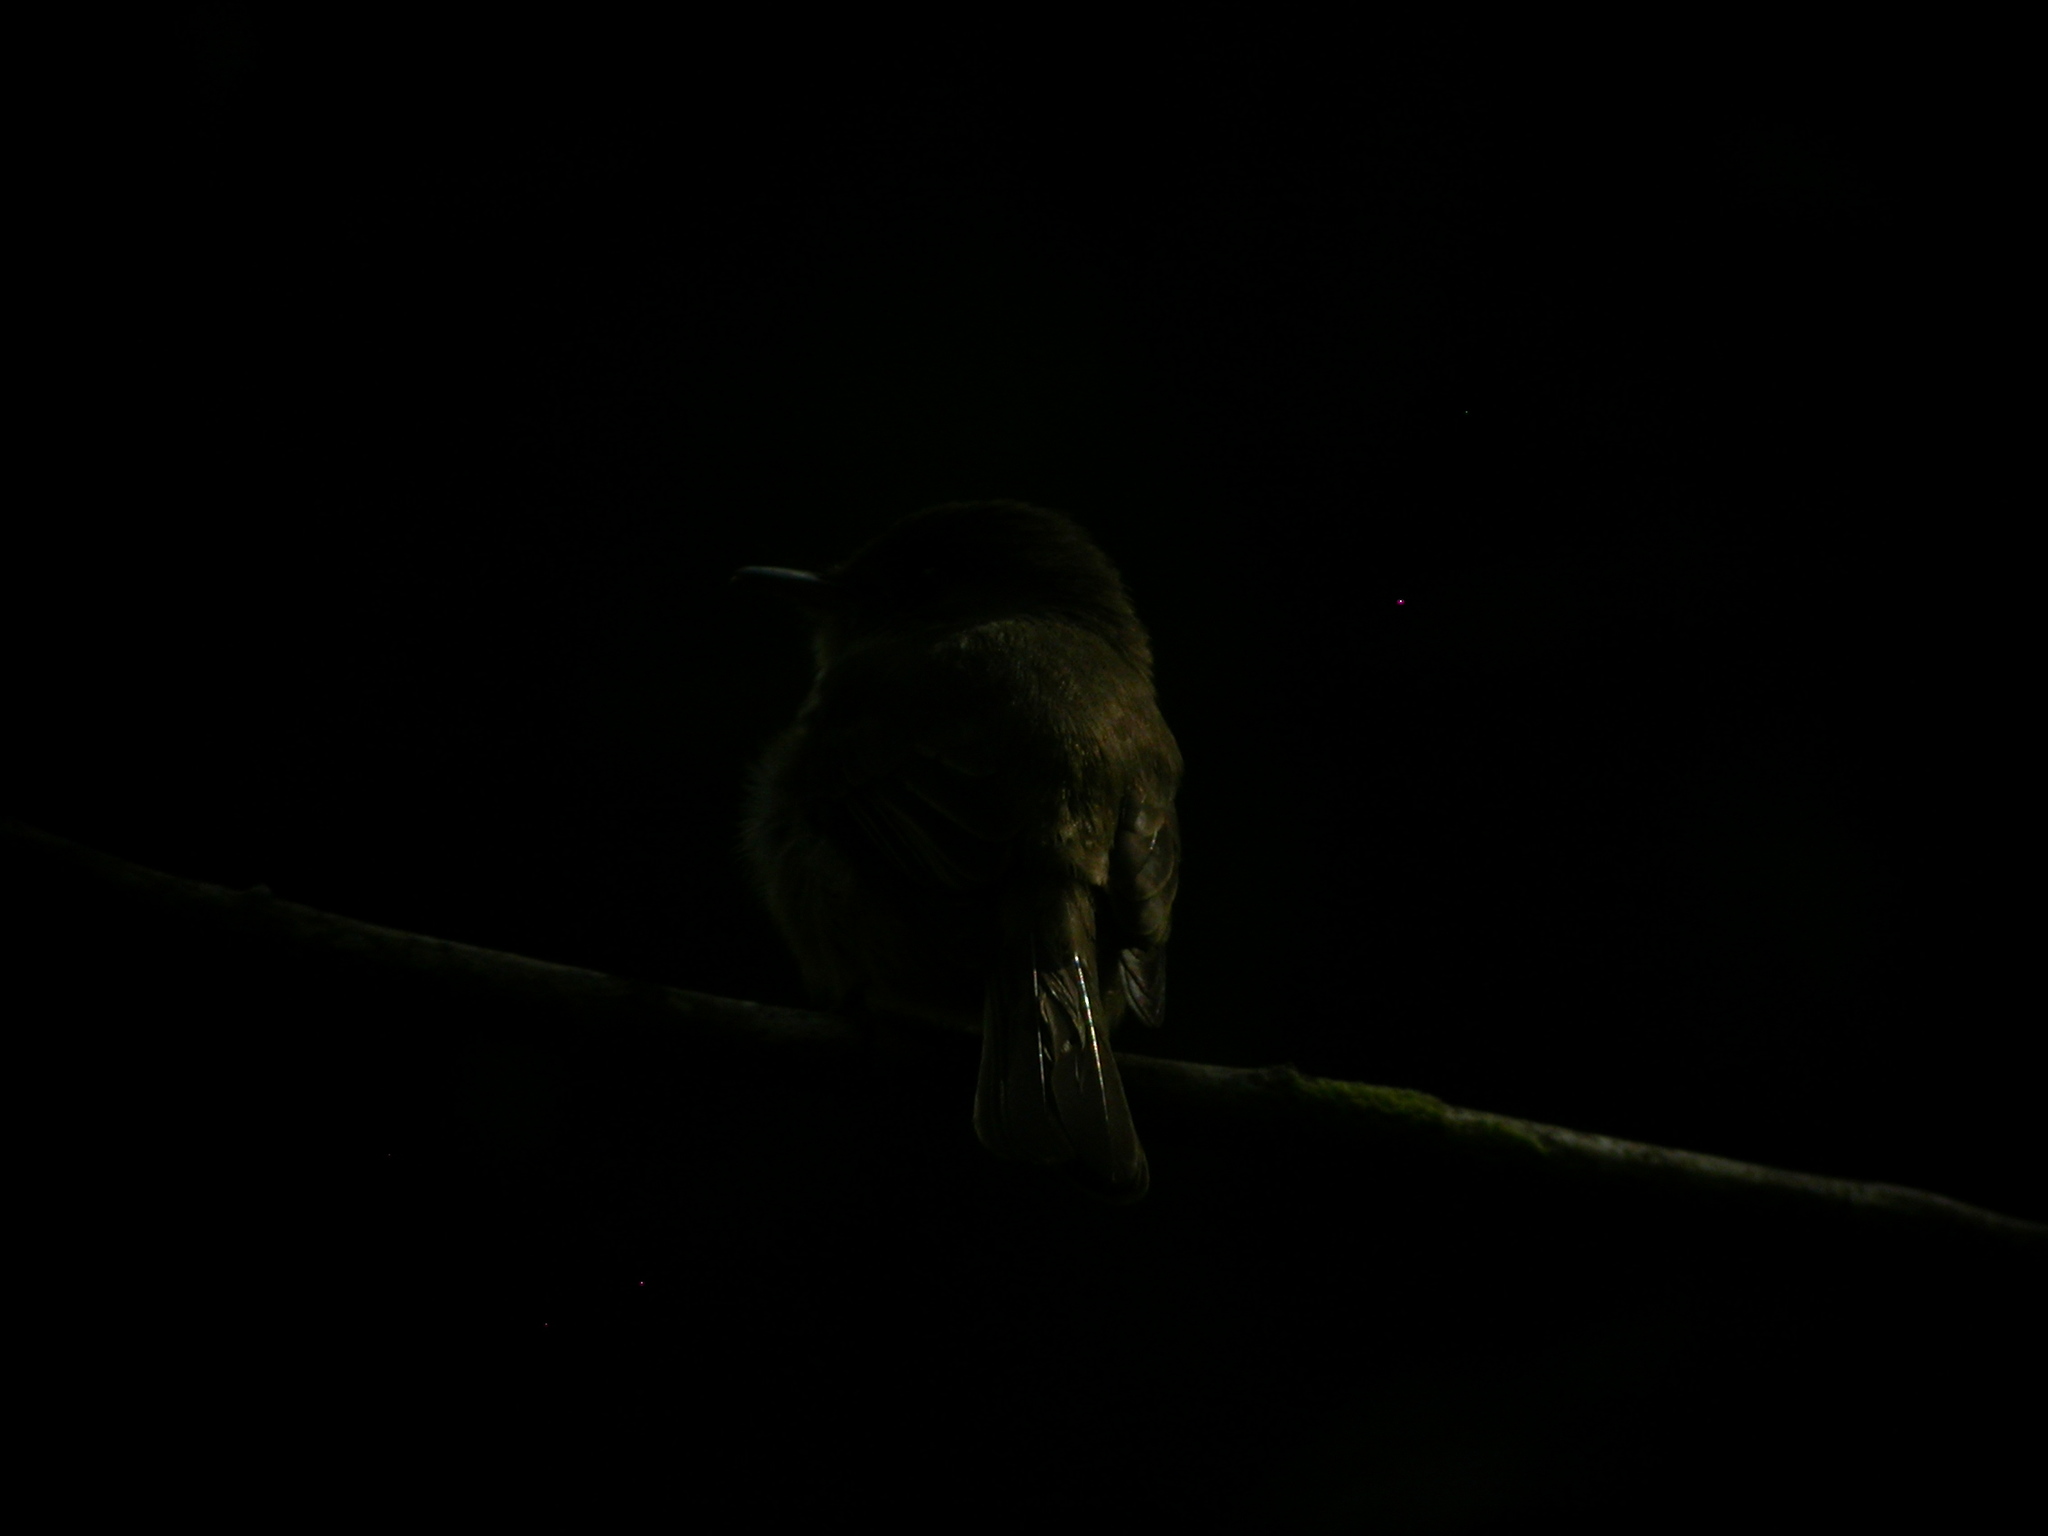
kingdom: Animalia
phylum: Chordata
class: Aves
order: Passeriformes
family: Tyrannidae
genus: Contopus
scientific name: Contopus latirostris
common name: Lesser antillean pewee
